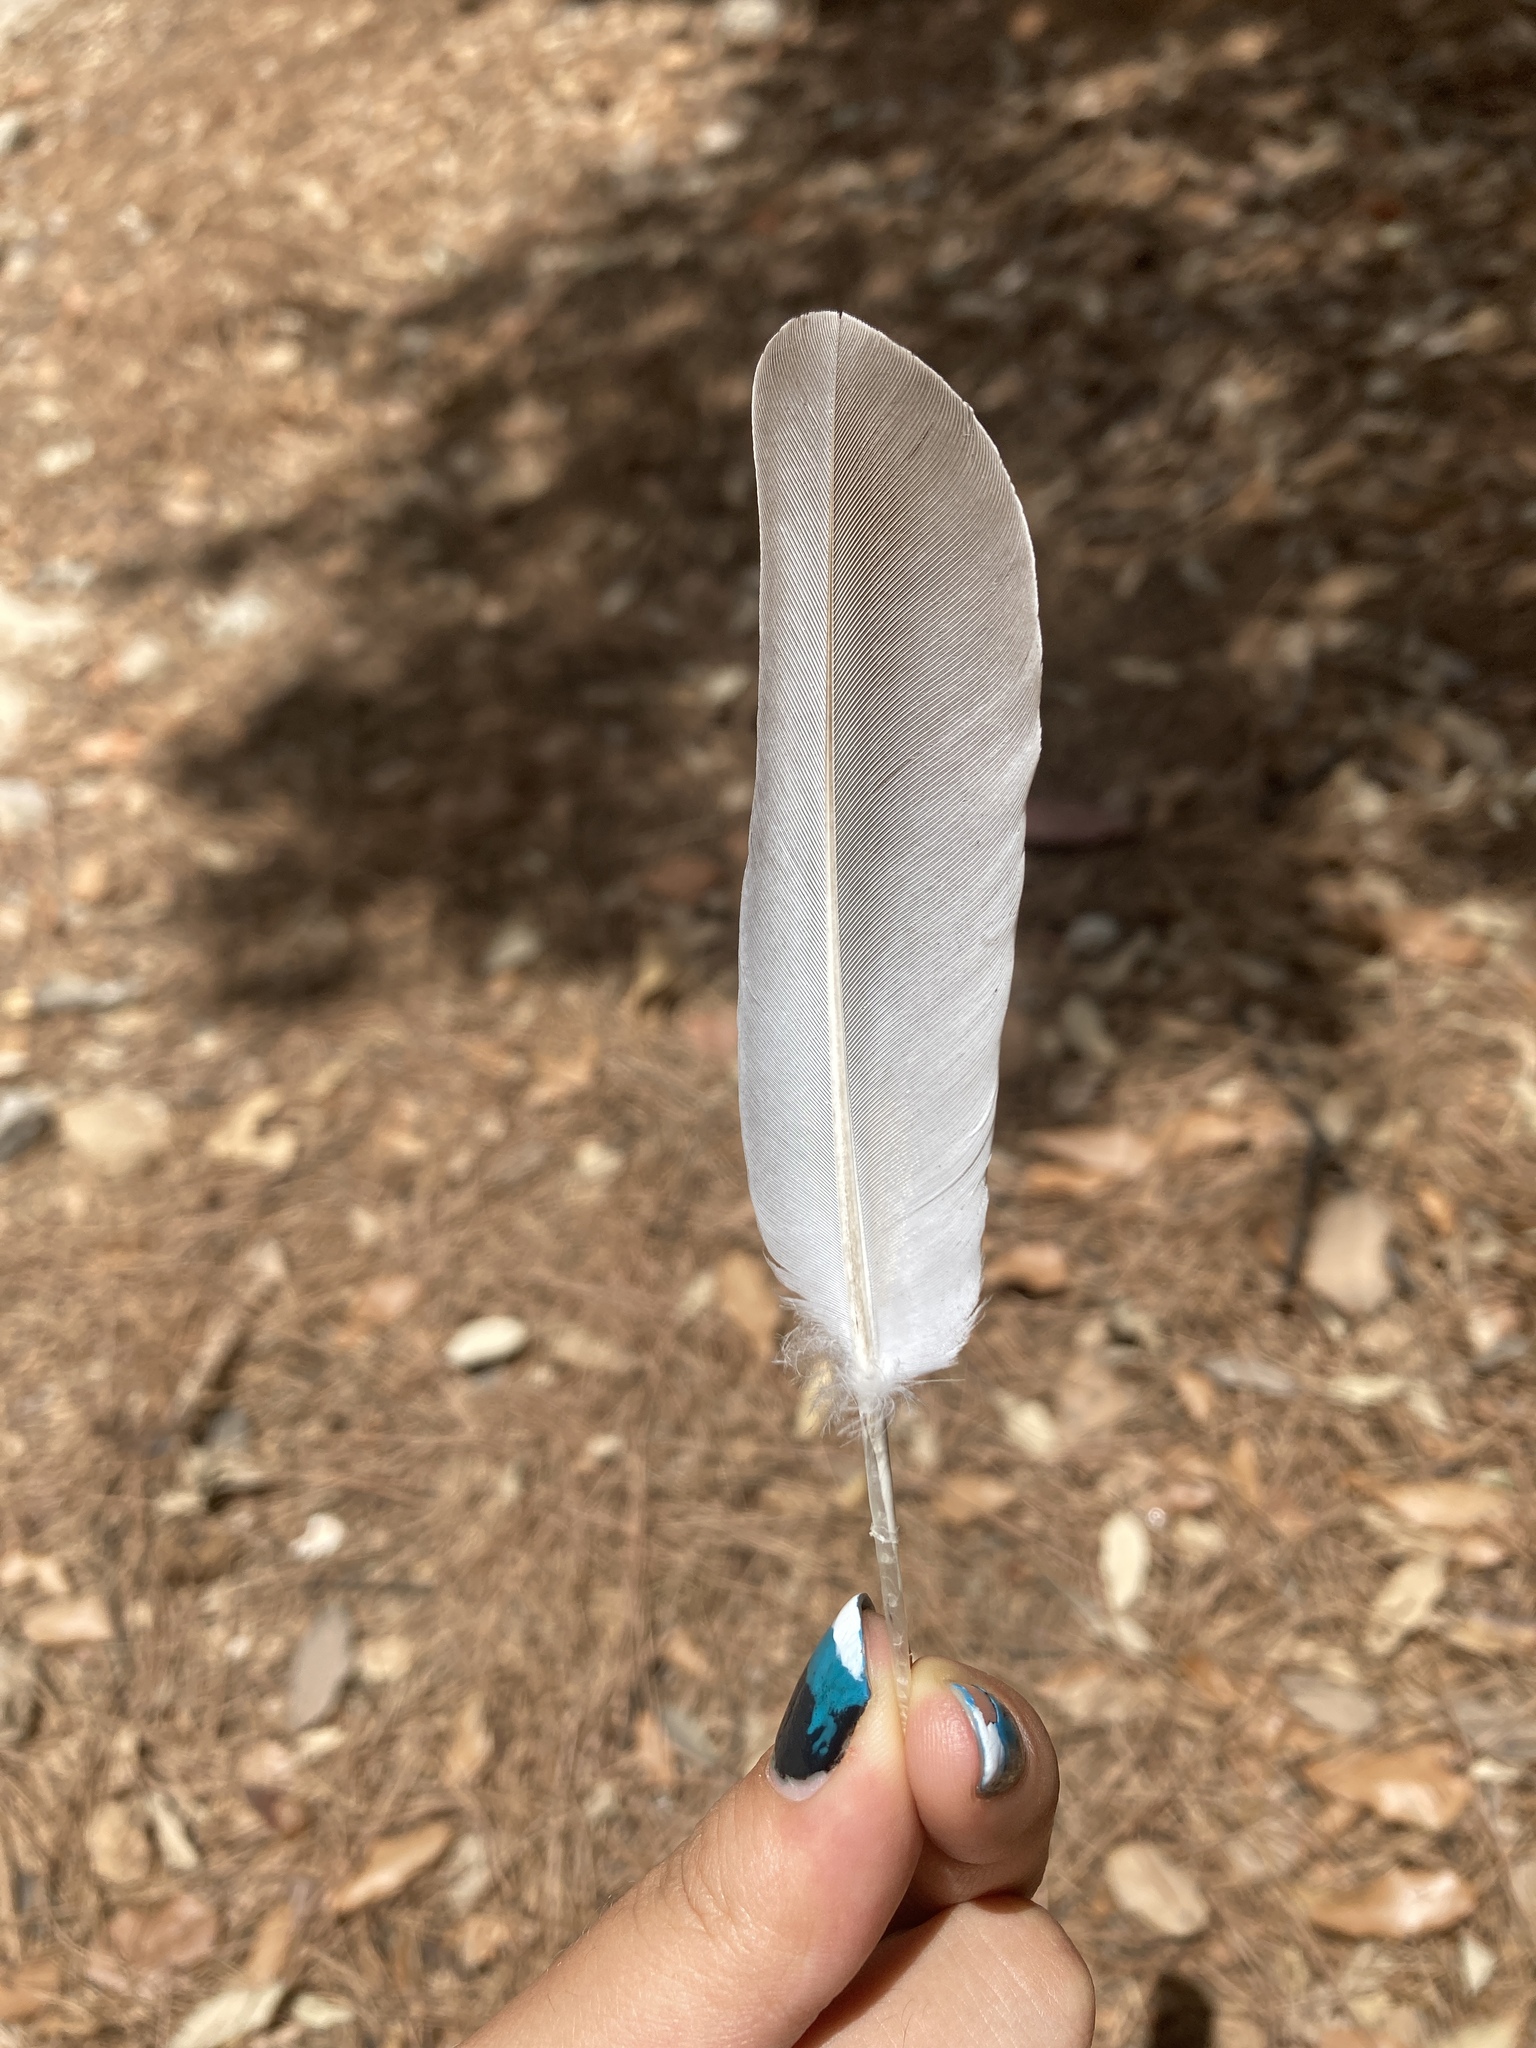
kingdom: Animalia
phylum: Chordata
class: Aves
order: Columbiformes
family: Columbidae
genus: Streptopelia
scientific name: Streptopelia decaocto
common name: Eurasian collared dove
